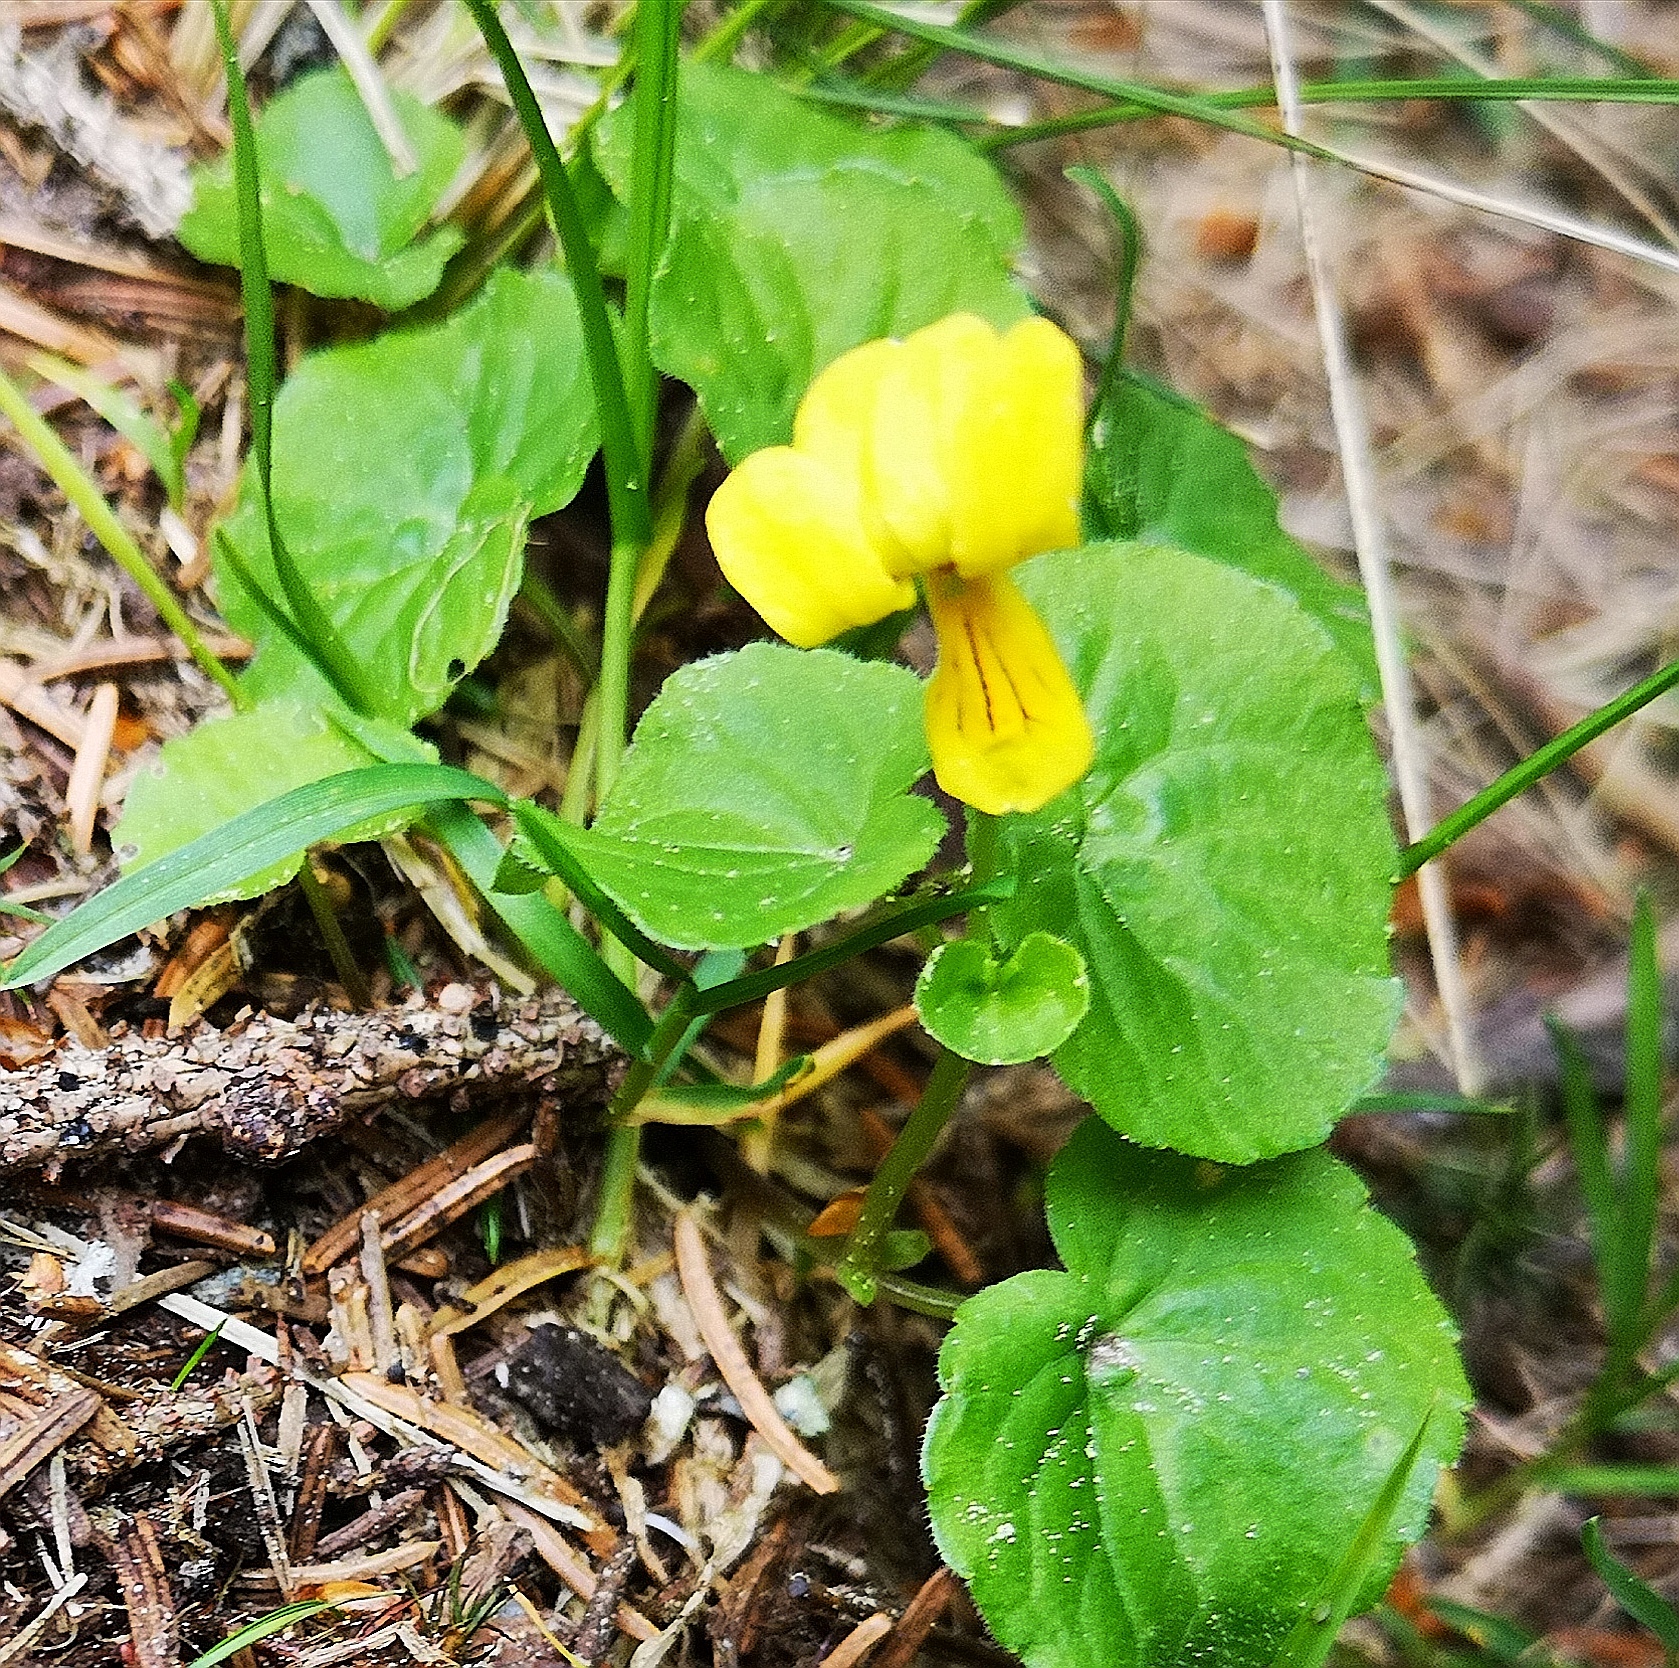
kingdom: Plantae
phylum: Tracheophyta
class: Magnoliopsida
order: Malpighiales
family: Violaceae
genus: Viola
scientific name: Viola biflora
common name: Alpine yellow violet
